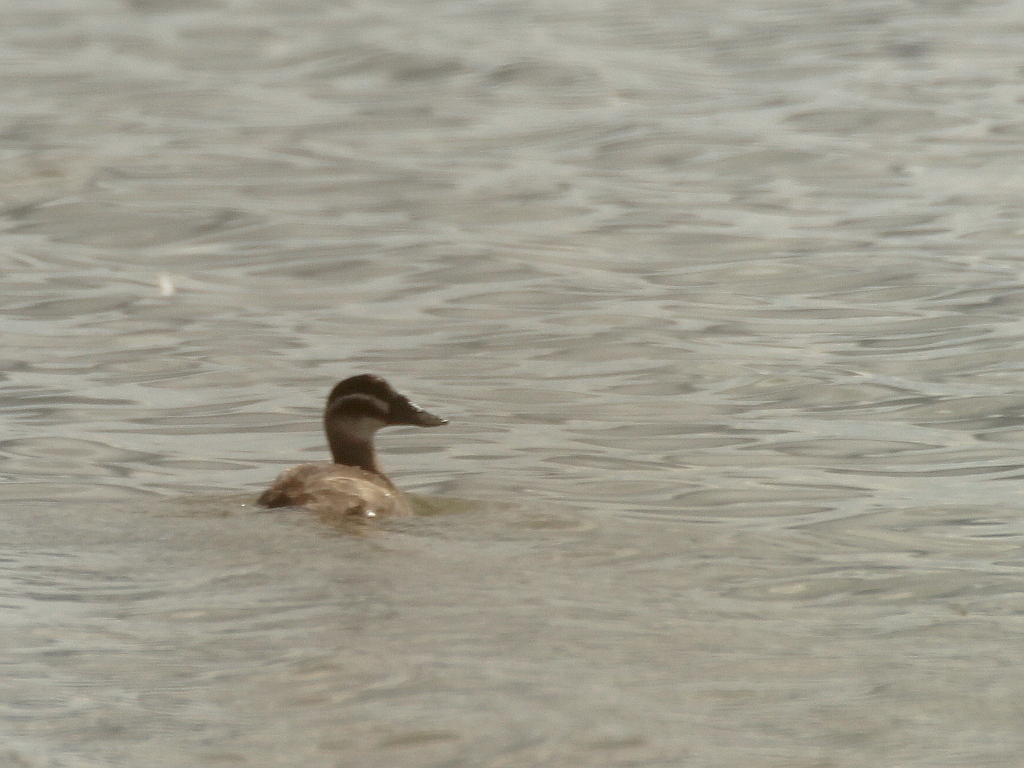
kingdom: Animalia
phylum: Chordata
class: Aves
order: Anseriformes
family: Anatidae
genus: Oxyura
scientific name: Oxyura leucocephala
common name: White-headed duck
